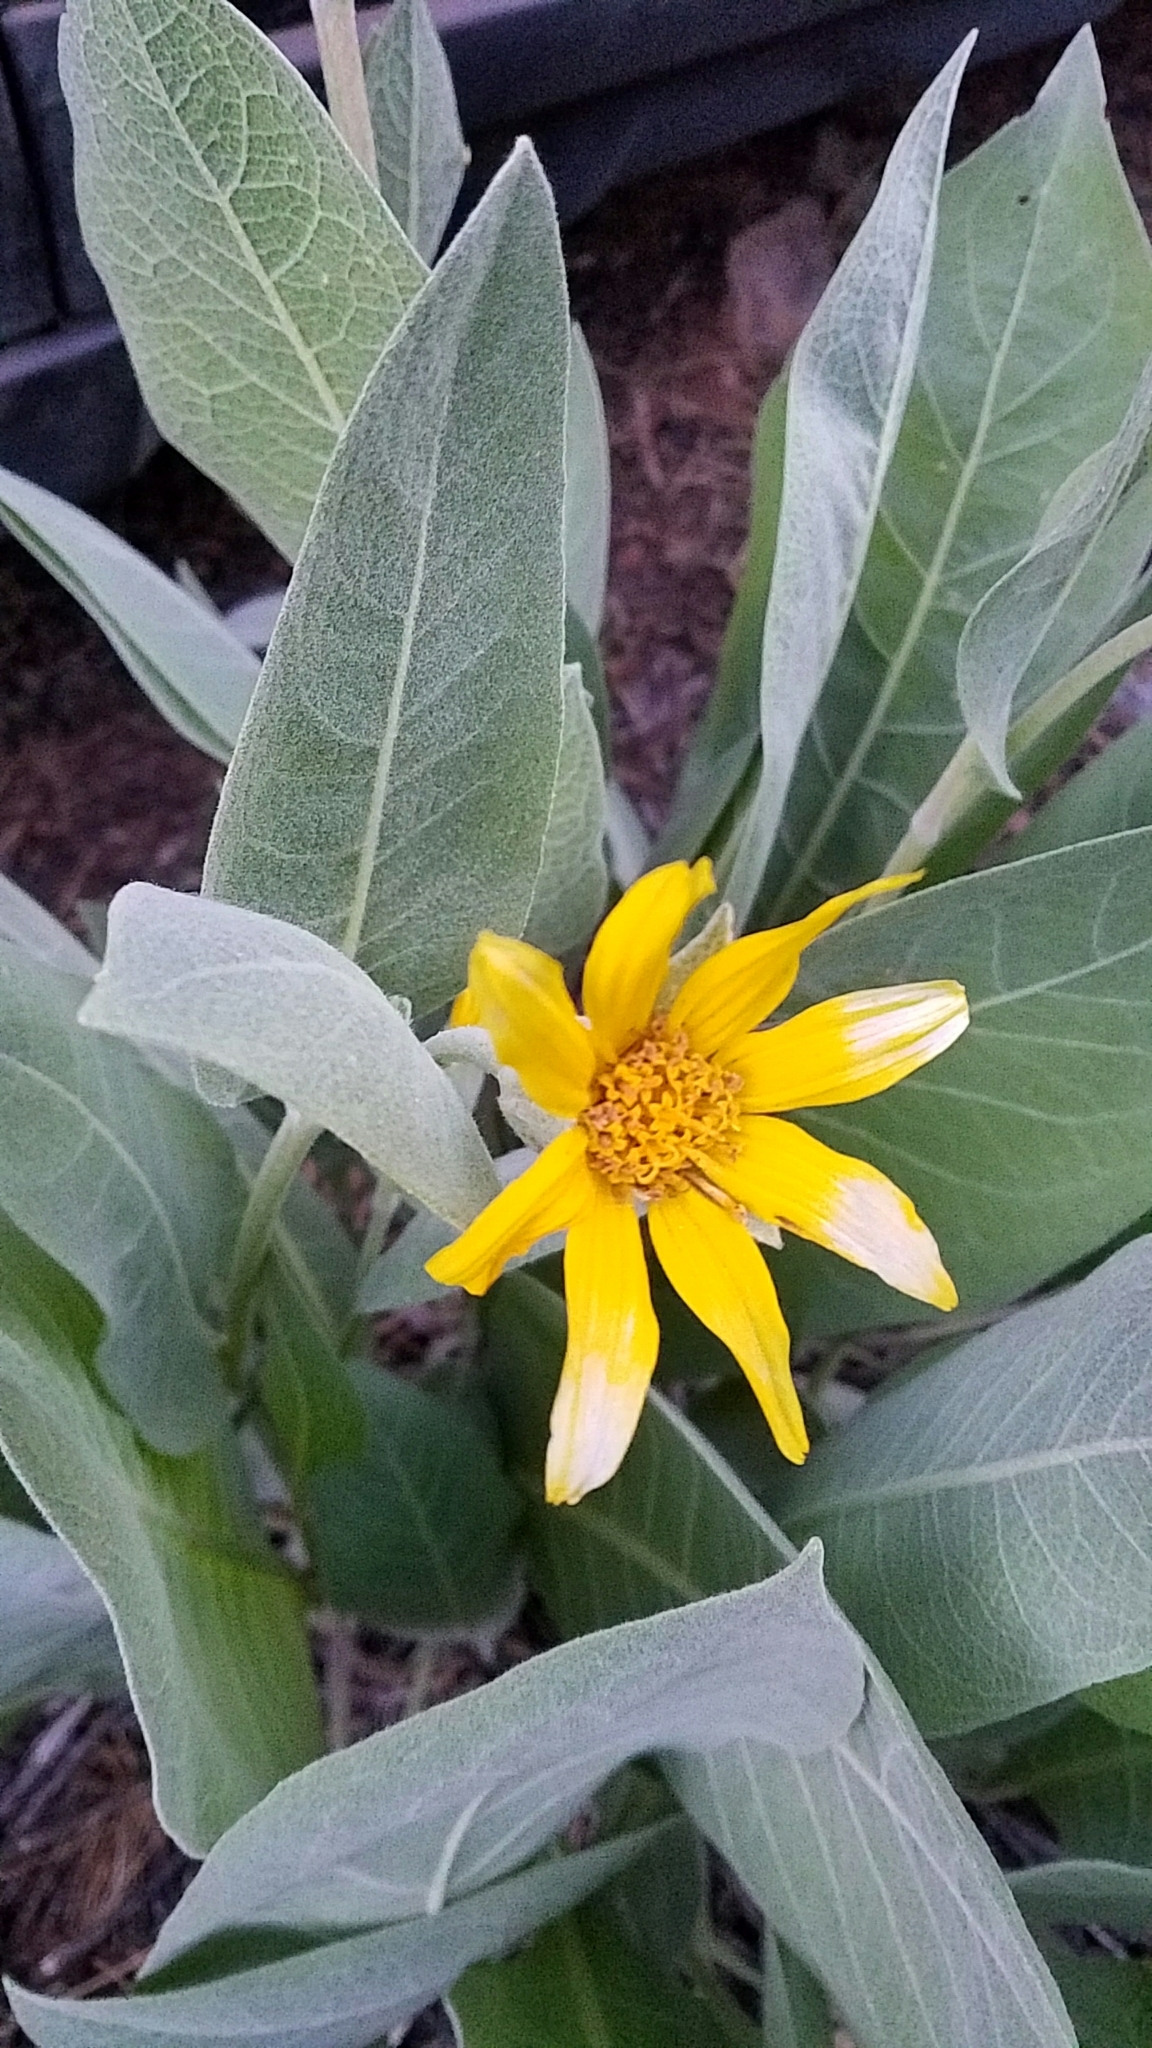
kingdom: Plantae
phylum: Tracheophyta
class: Magnoliopsida
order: Asterales
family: Asteraceae
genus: Wyethia
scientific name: Wyethia mollis
